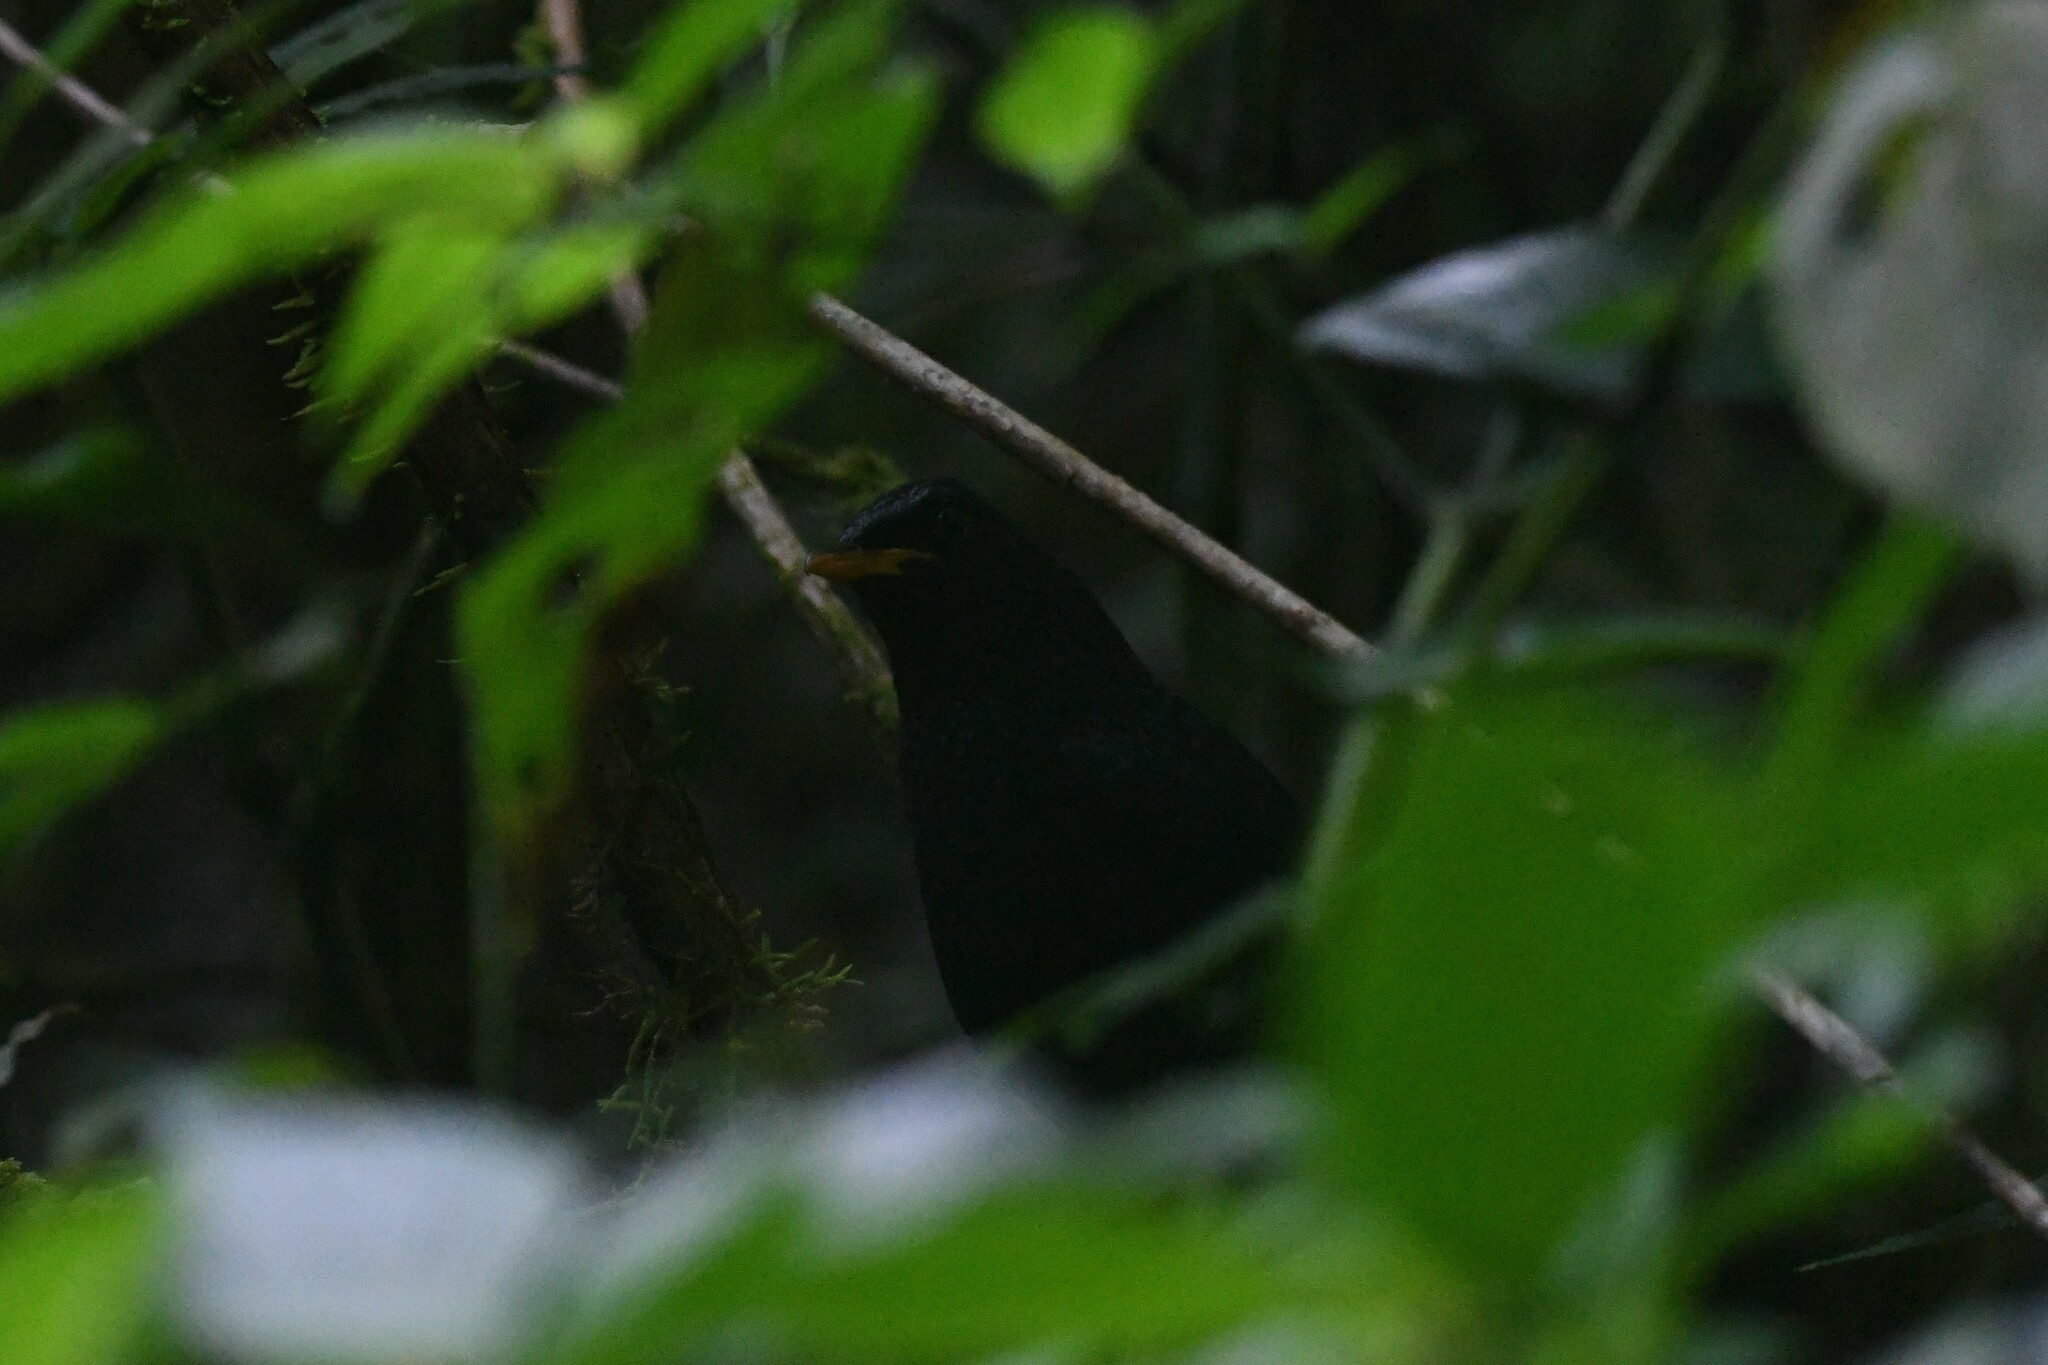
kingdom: Animalia
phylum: Chordata
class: Aves
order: Passeriformes
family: Muscicapidae
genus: Myophonus
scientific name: Myophonus caeruleus
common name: Blue whistling-thrush
